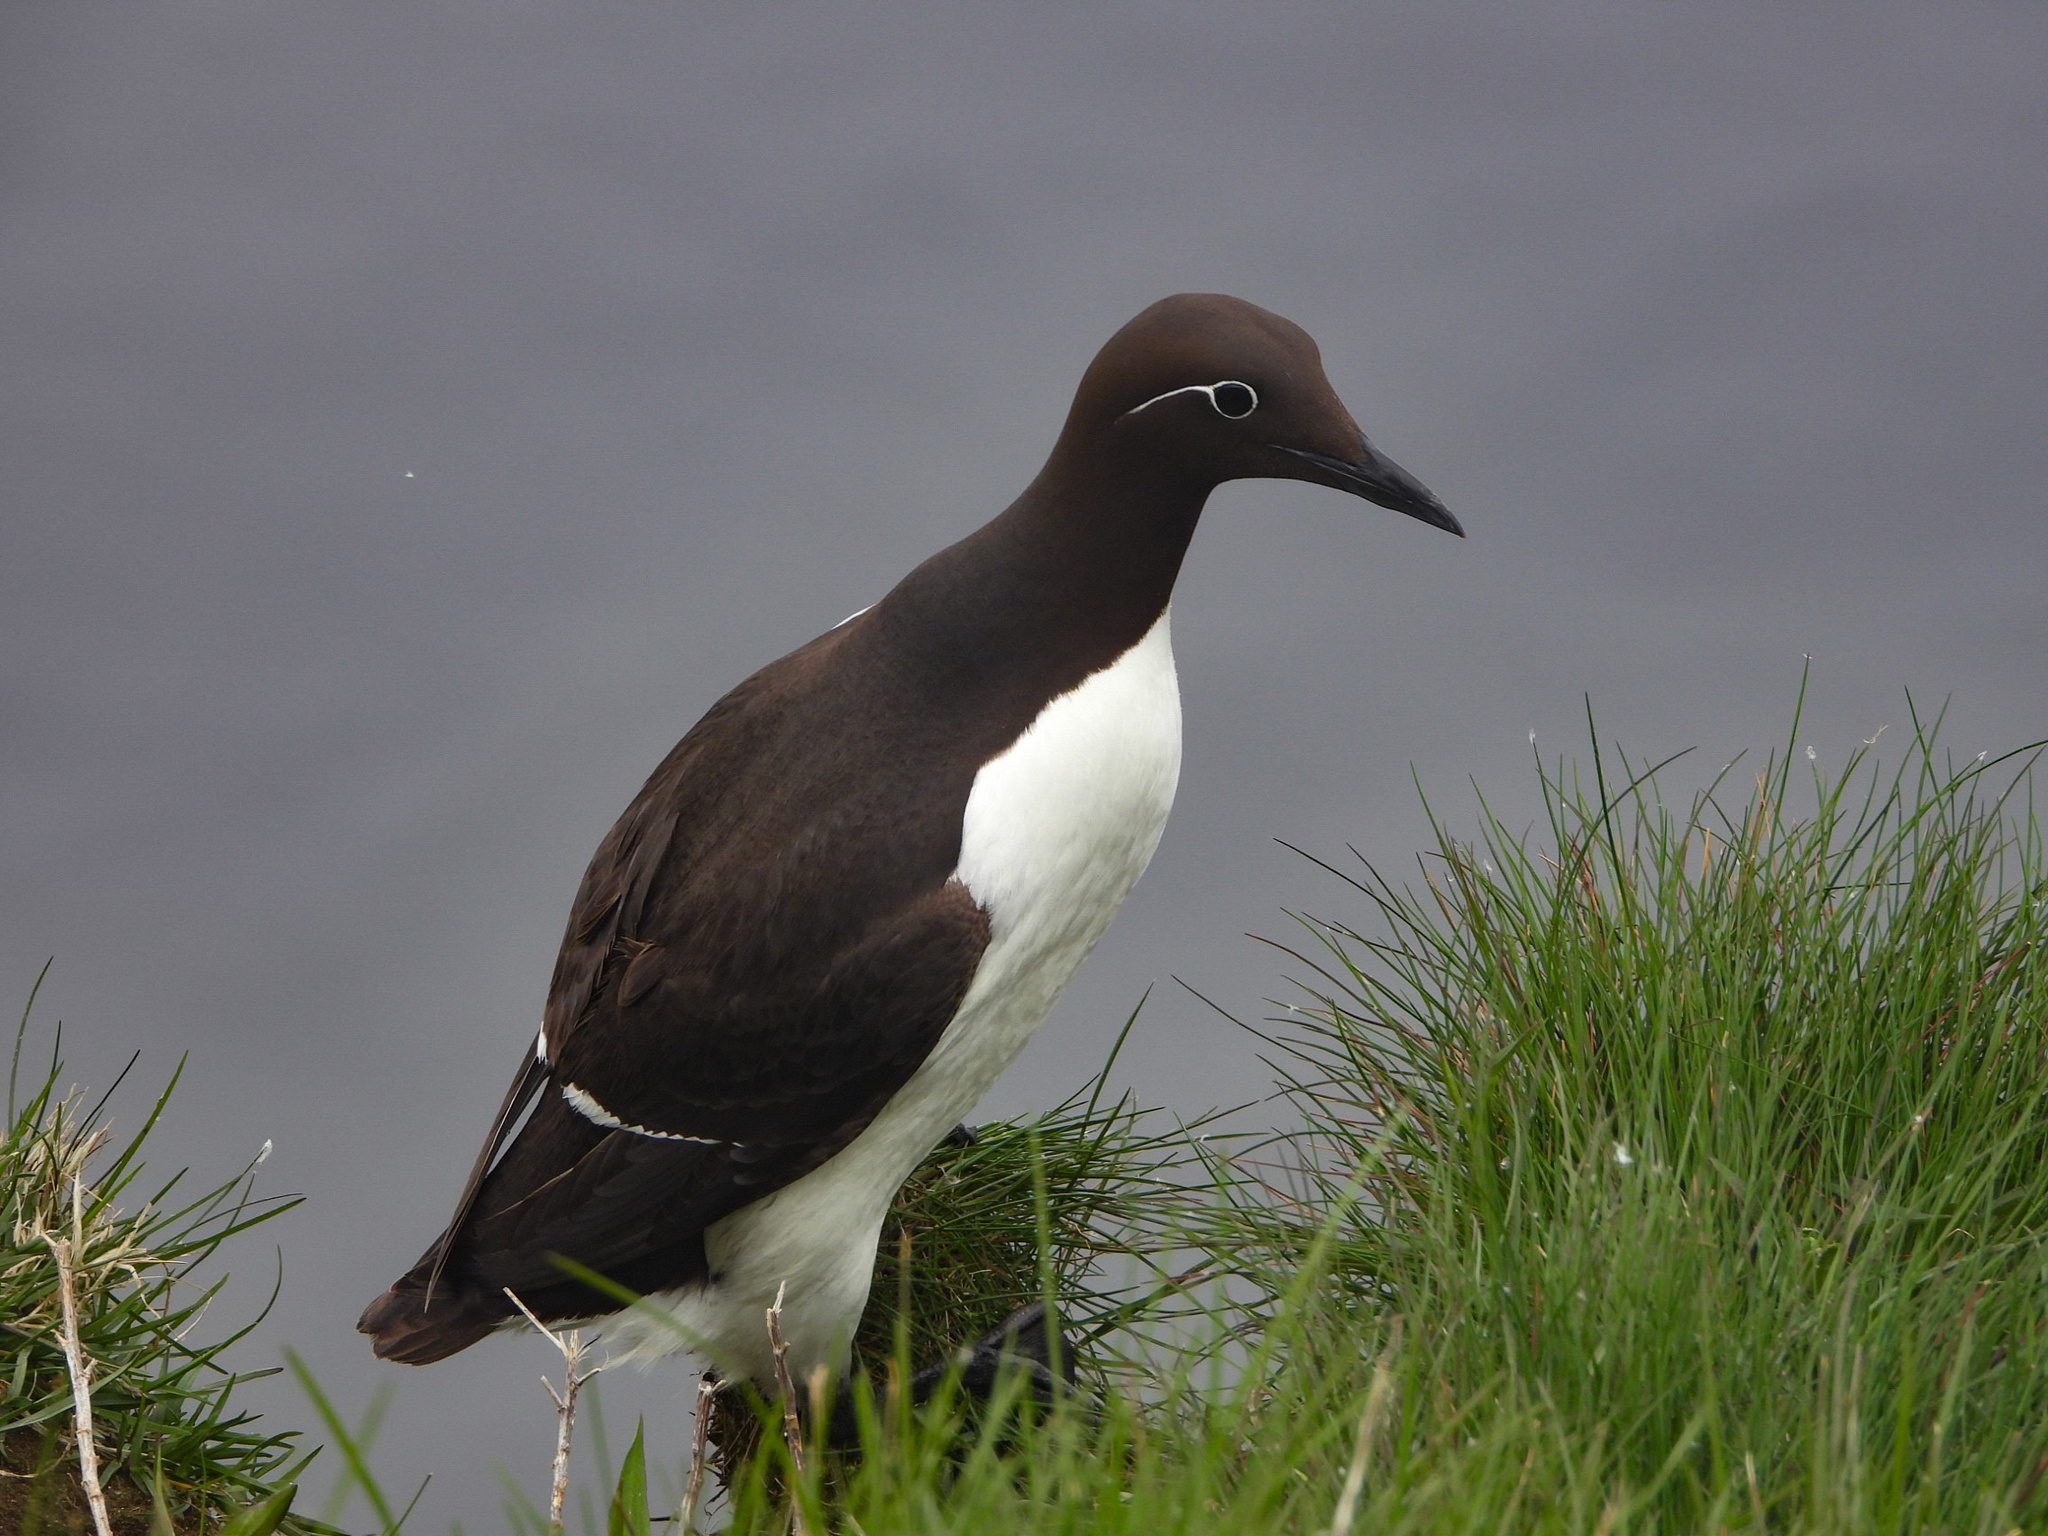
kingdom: Animalia
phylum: Chordata
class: Aves
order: Charadriiformes
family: Alcidae
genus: Uria
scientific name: Uria aalge
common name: Common murre
